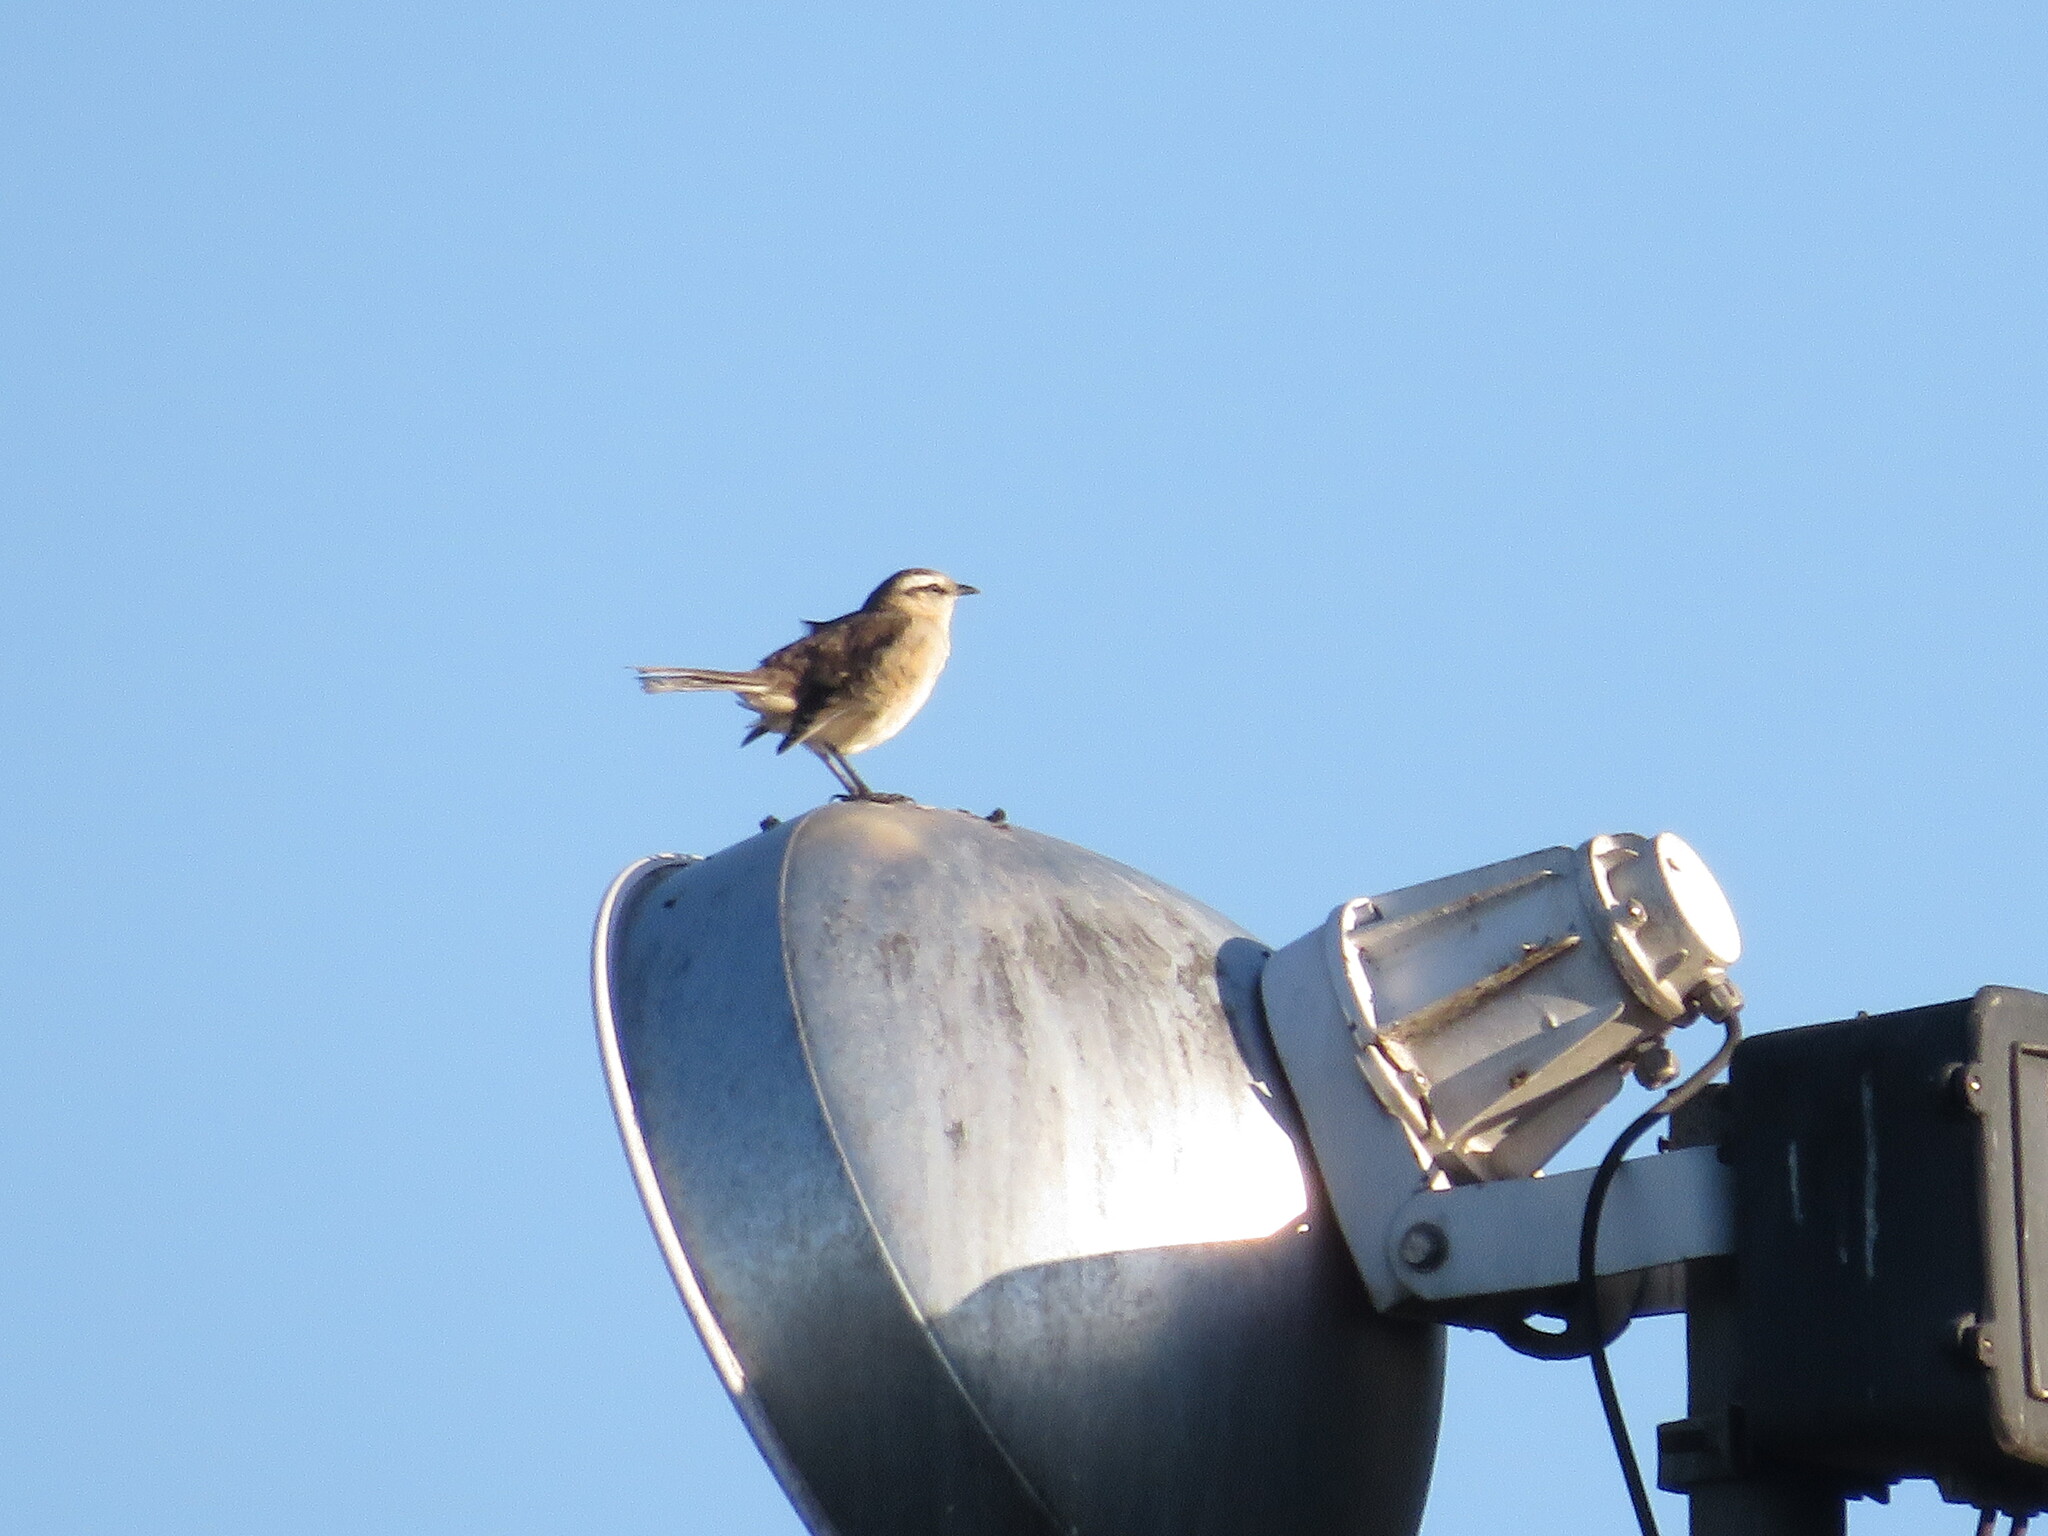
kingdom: Animalia
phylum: Chordata
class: Aves
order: Passeriformes
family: Mimidae
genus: Mimus
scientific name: Mimus saturninus
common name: Chalk-browed mockingbird
